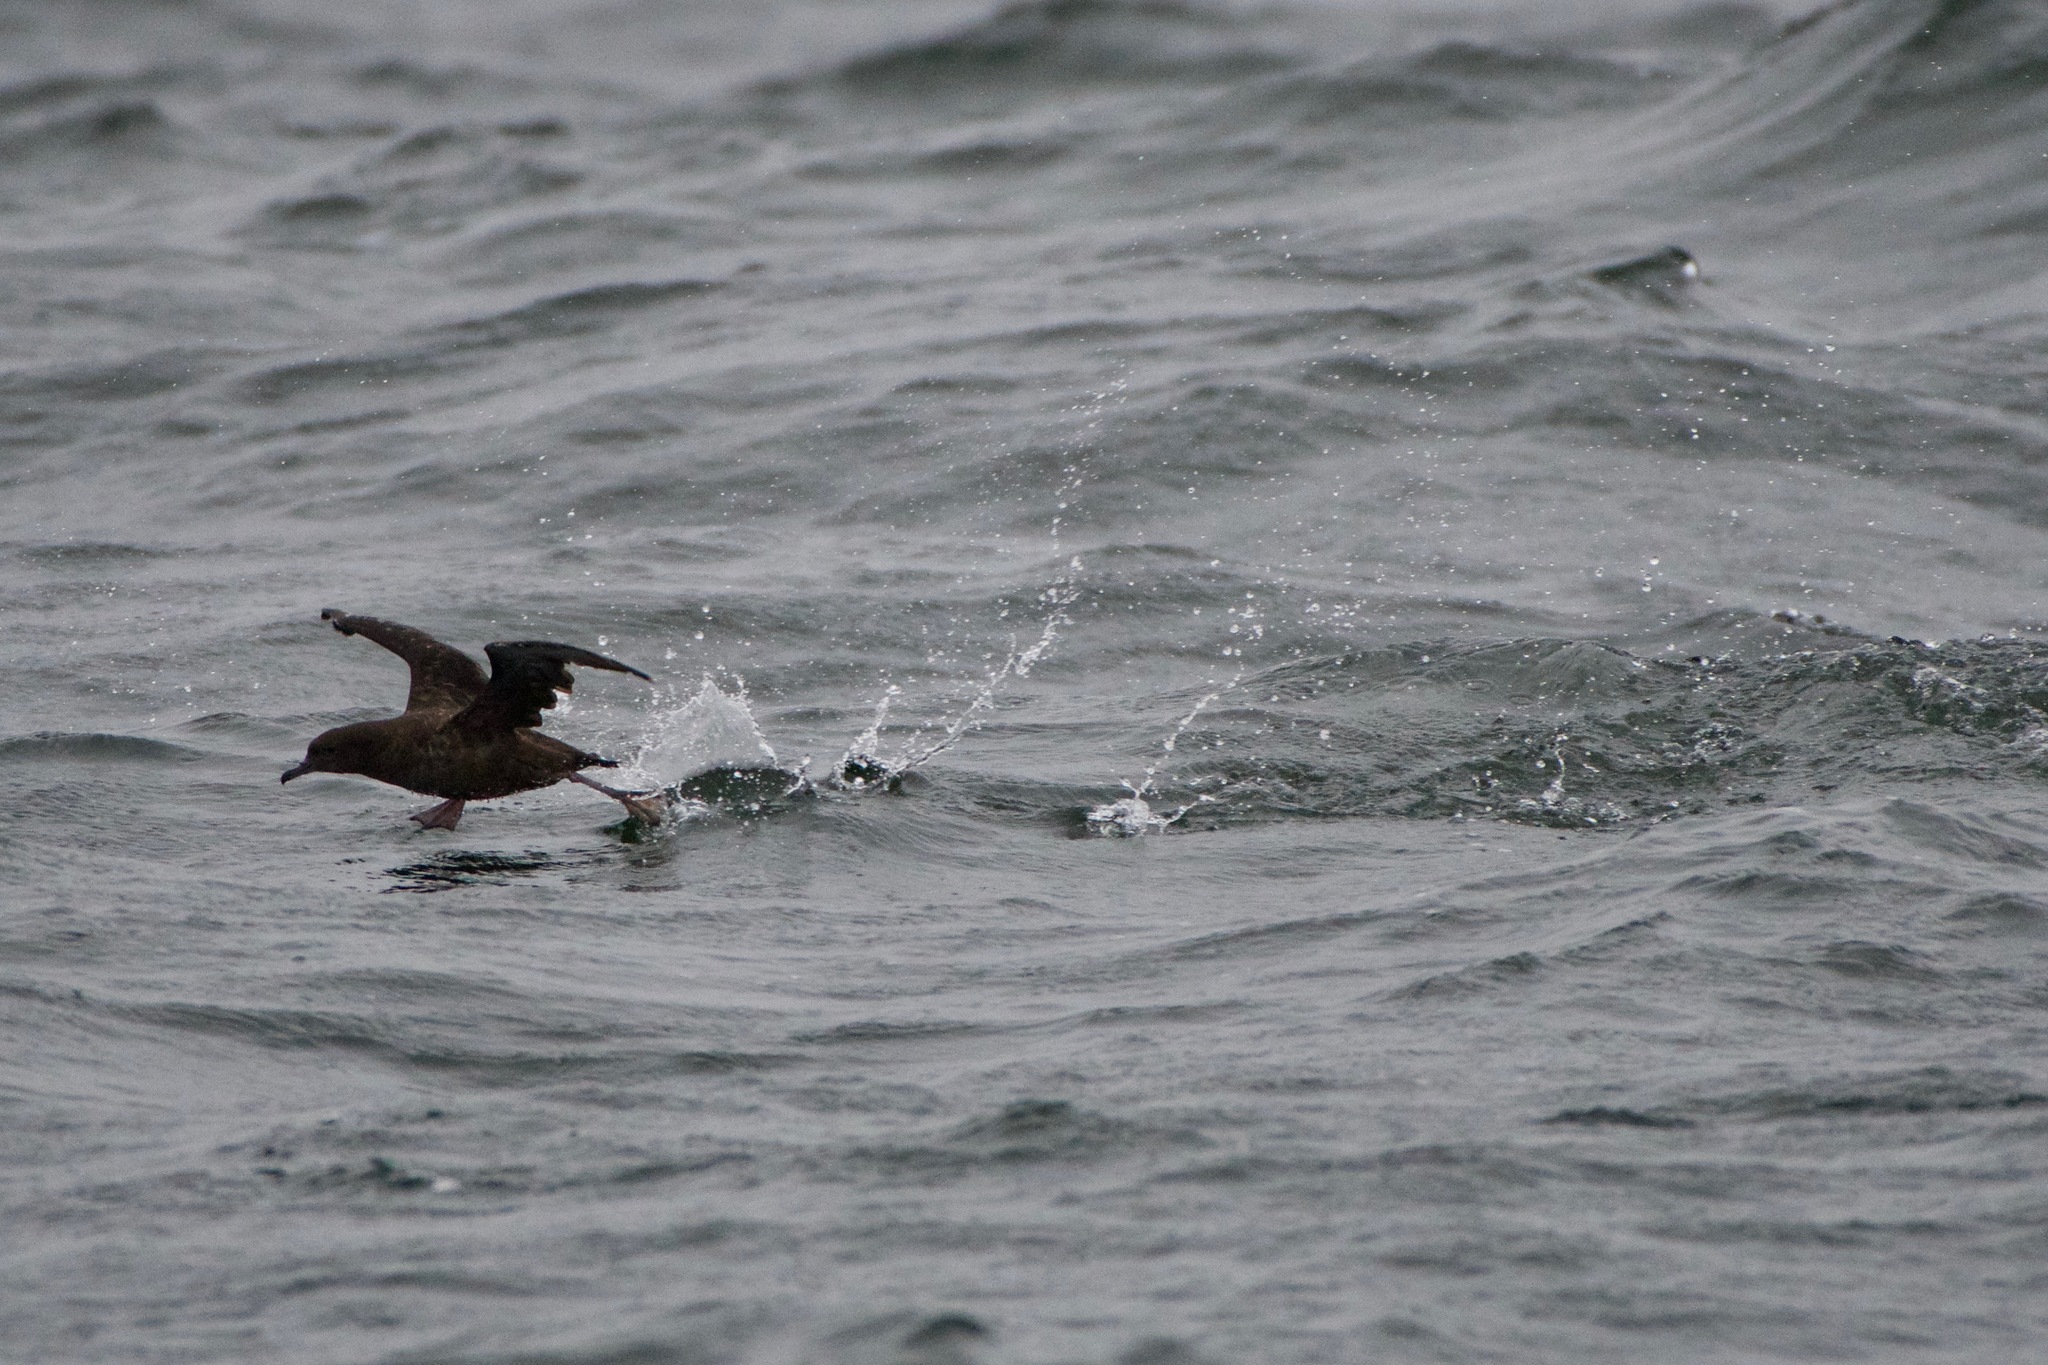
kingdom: Animalia
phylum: Chordata
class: Aves
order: Procellariiformes
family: Procellariidae
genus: Puffinus
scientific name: Puffinus griseus
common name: Sooty shearwater
